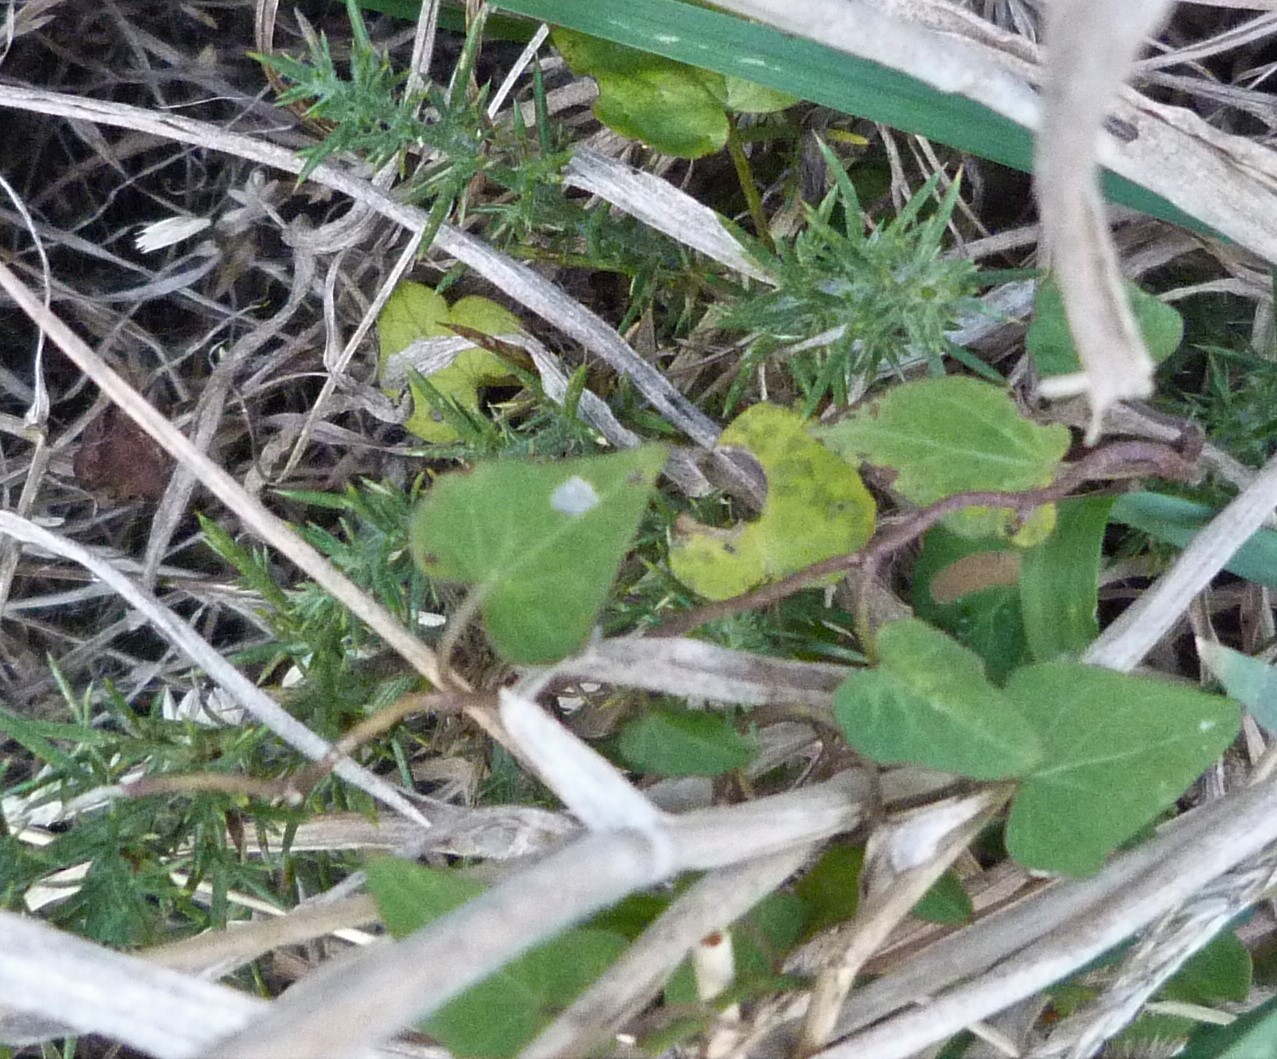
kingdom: Plantae
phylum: Tracheophyta
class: Magnoliopsida
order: Solanales
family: Convolvulaceae
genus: Calystegia
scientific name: Calystegia tuguriorum
